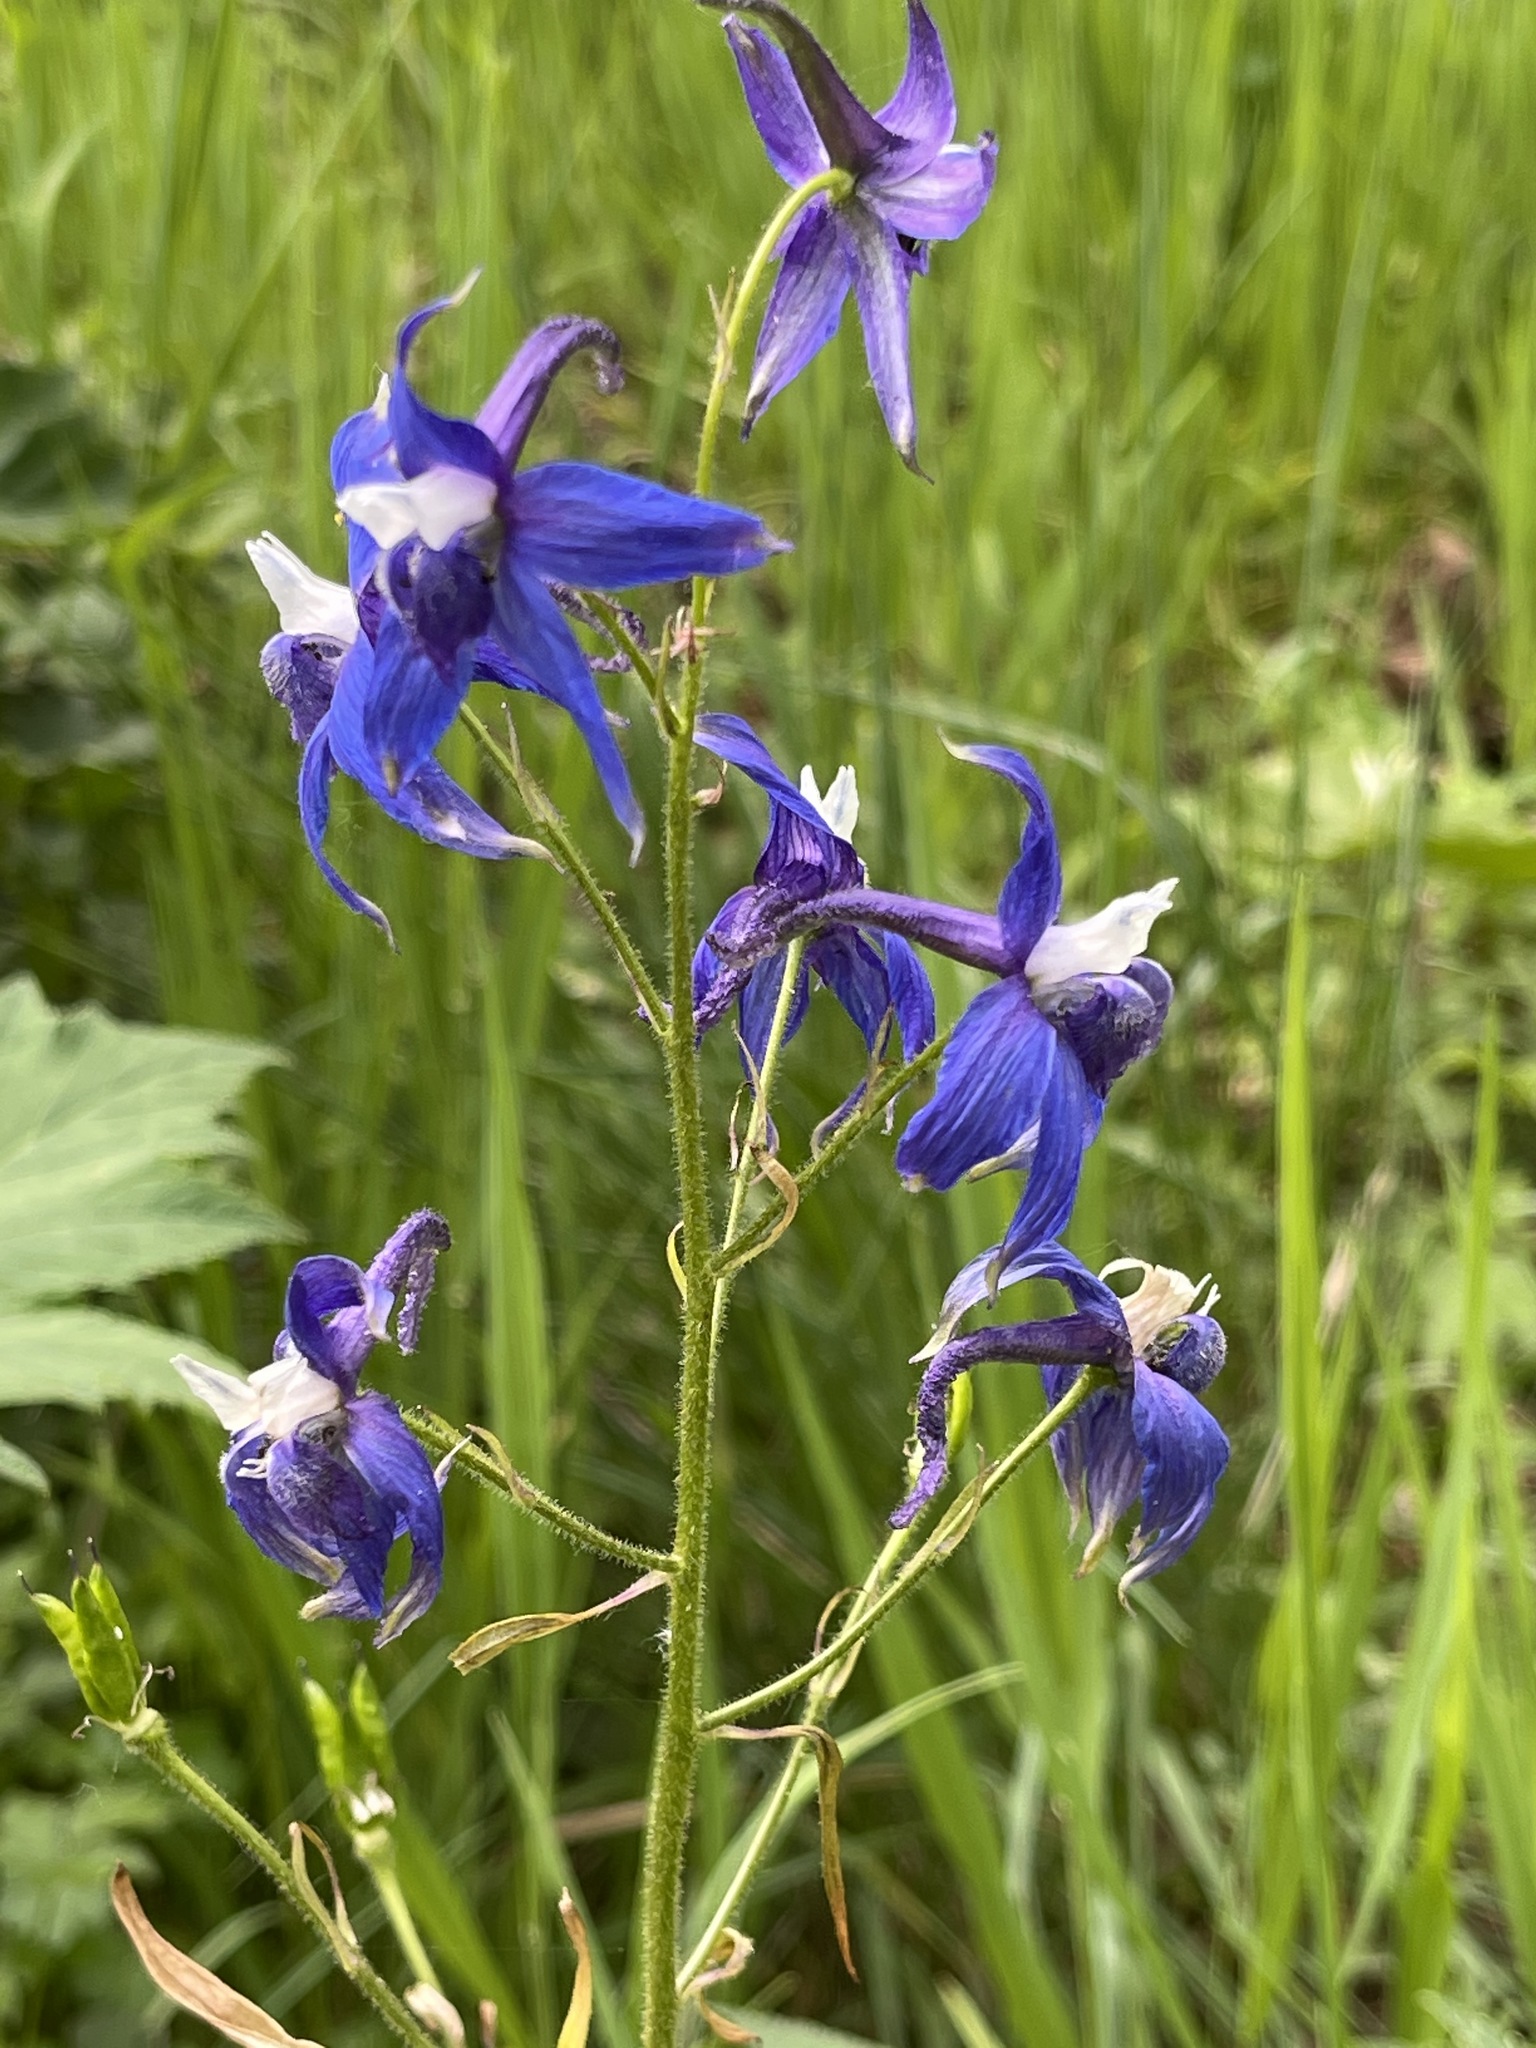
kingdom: Plantae
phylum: Tracheophyta
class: Magnoliopsida
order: Ranunculales
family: Ranunculaceae
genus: Delphinium
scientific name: Delphinium trolliifolium
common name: Cow-poison
